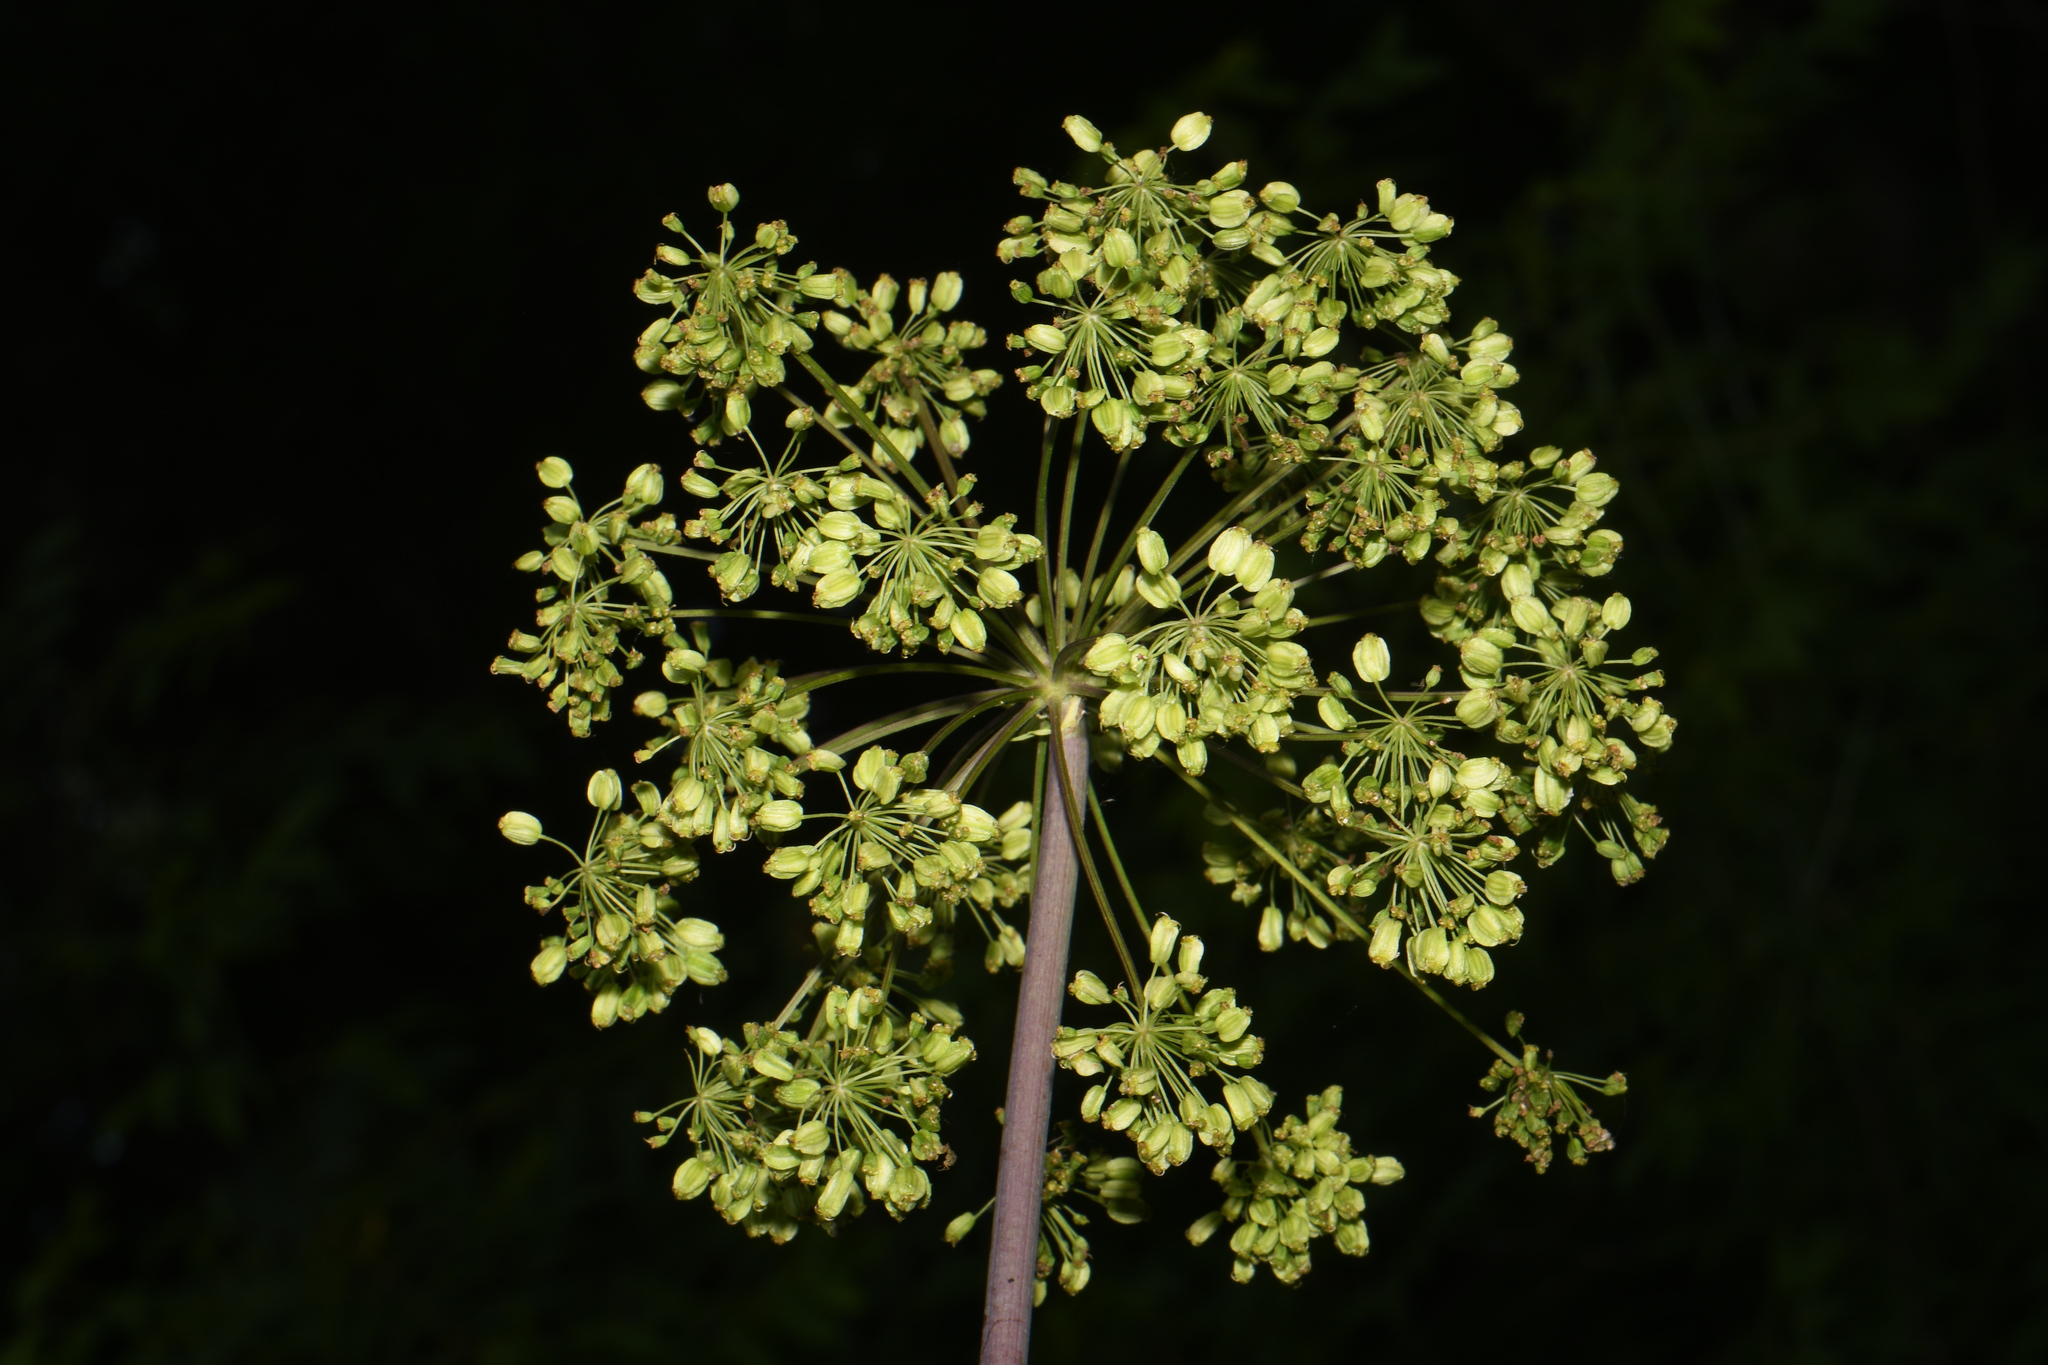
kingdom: Plantae
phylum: Tracheophyta
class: Magnoliopsida
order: Apiales
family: Apiaceae
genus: Angelica
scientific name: Angelica atropurpurea
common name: Great angelica
